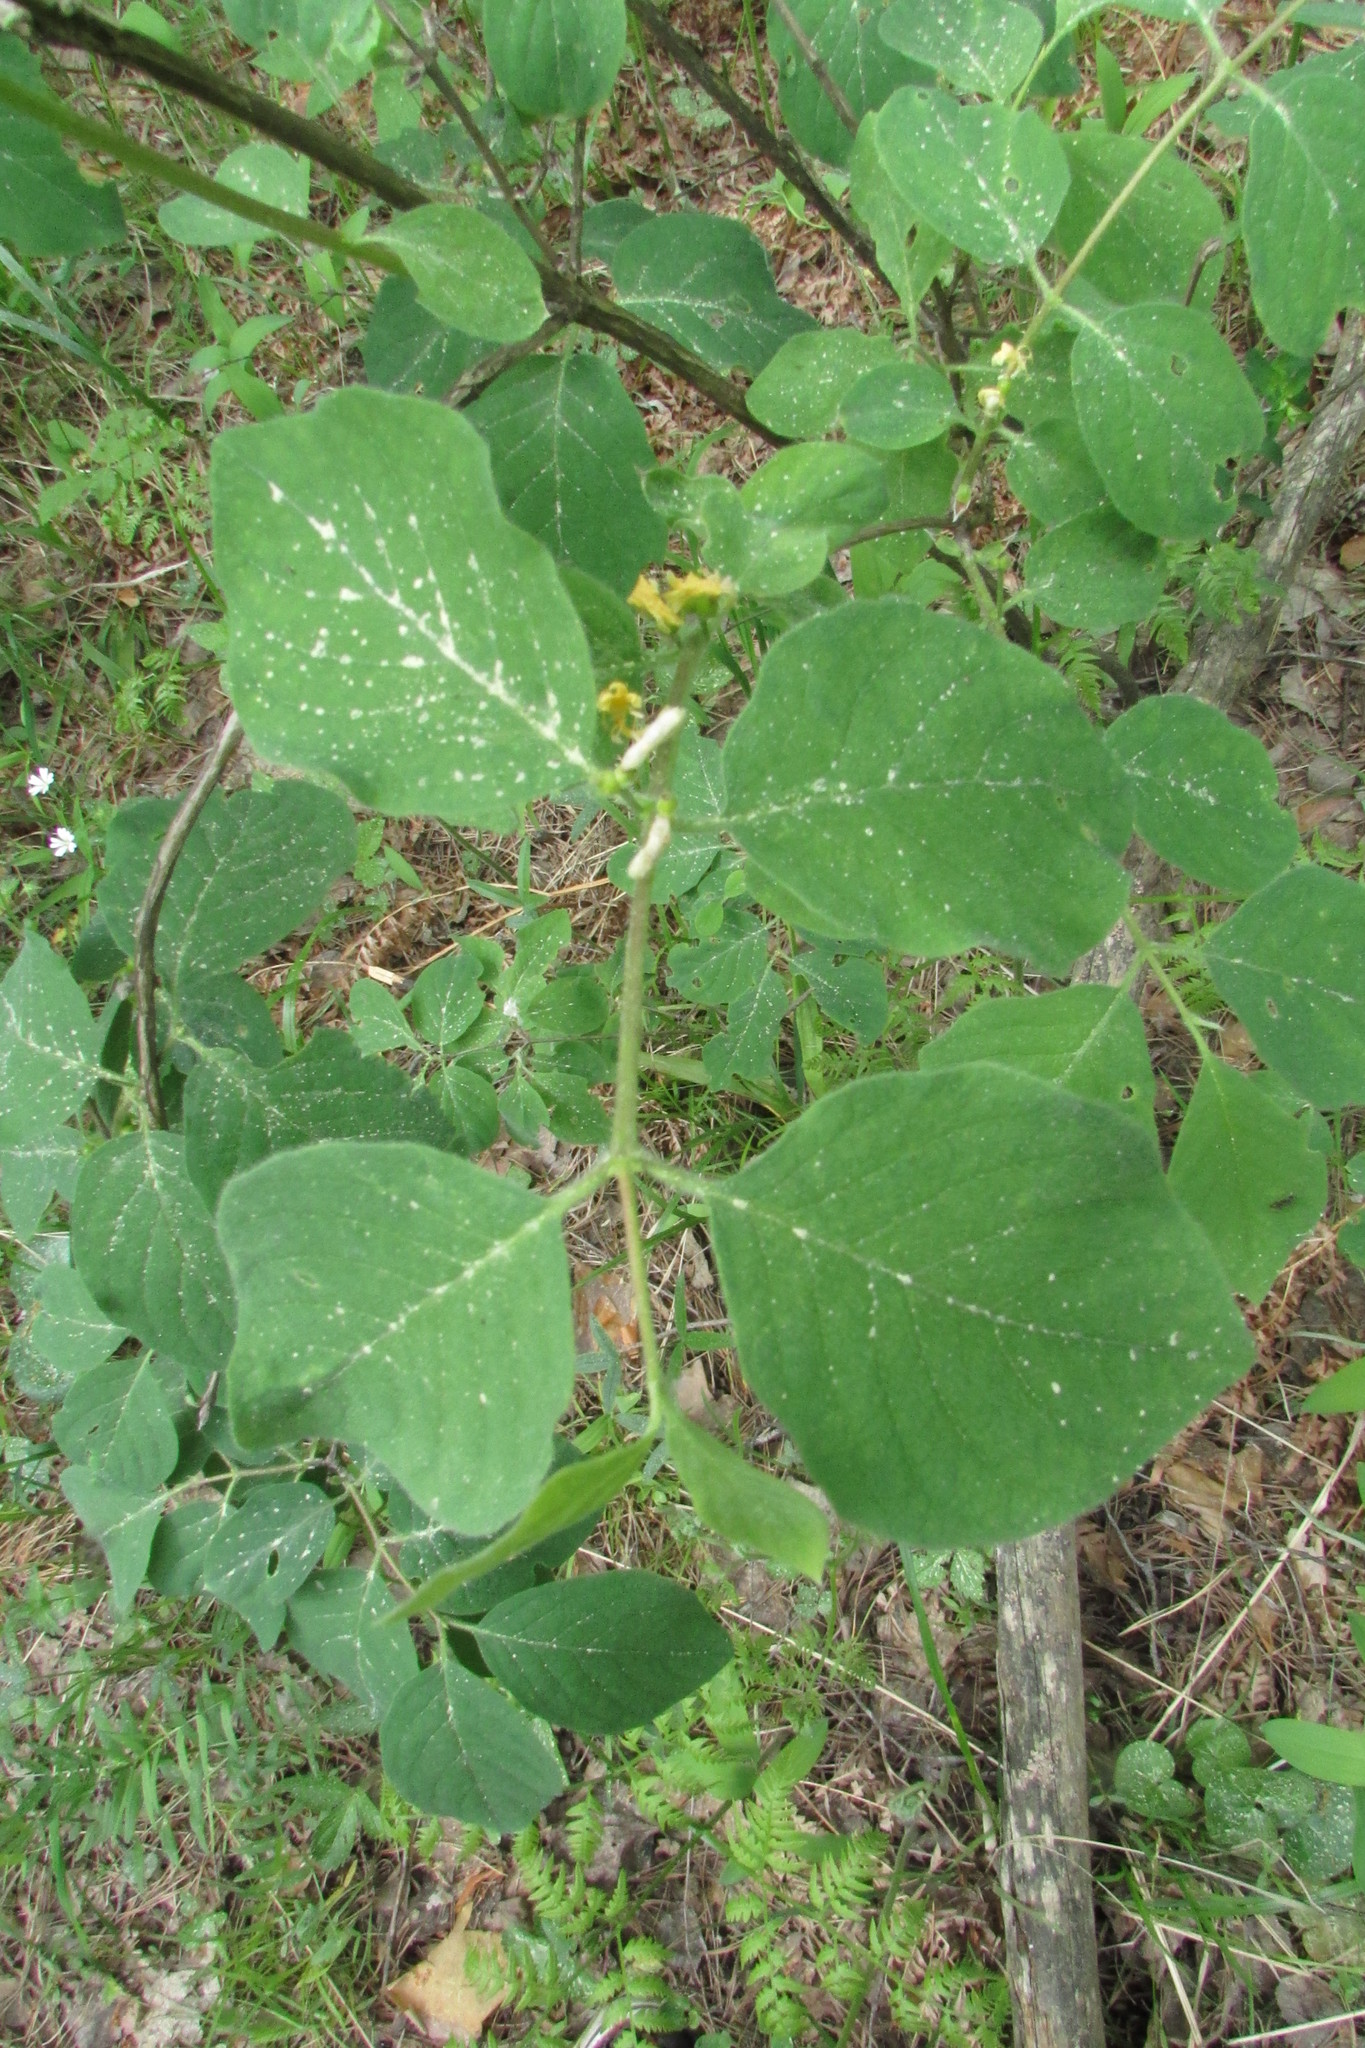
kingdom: Plantae
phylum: Tracheophyta
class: Magnoliopsida
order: Dipsacales
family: Caprifoliaceae
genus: Lonicera
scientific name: Lonicera xylosteum
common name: Fly honeysuckle
